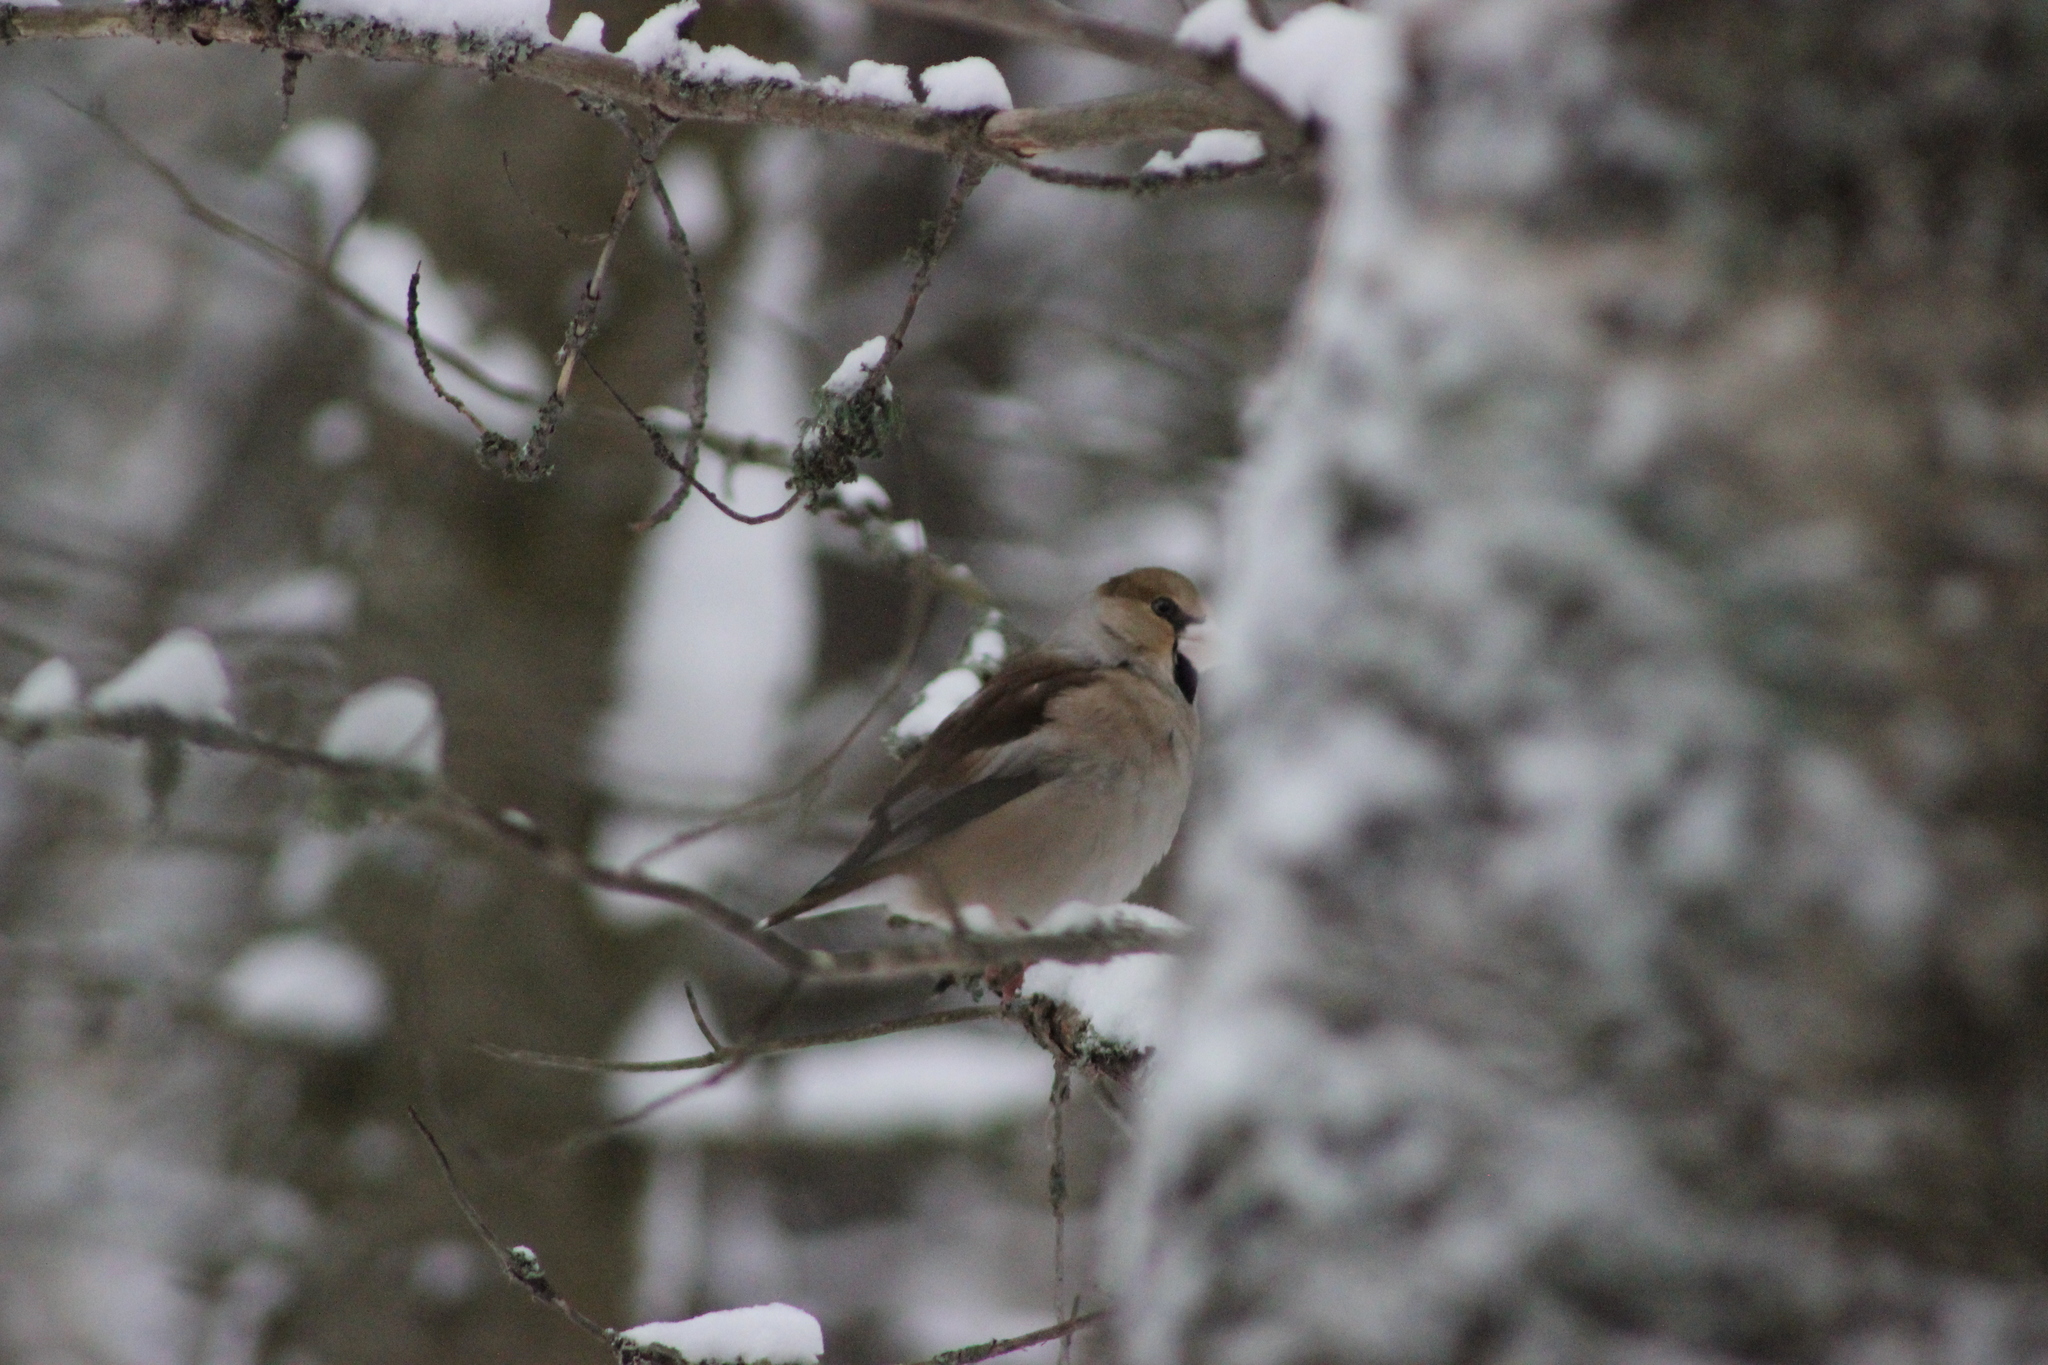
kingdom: Animalia
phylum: Chordata
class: Aves
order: Passeriformes
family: Fringillidae
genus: Coccothraustes
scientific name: Coccothraustes coccothraustes
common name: Hawfinch
